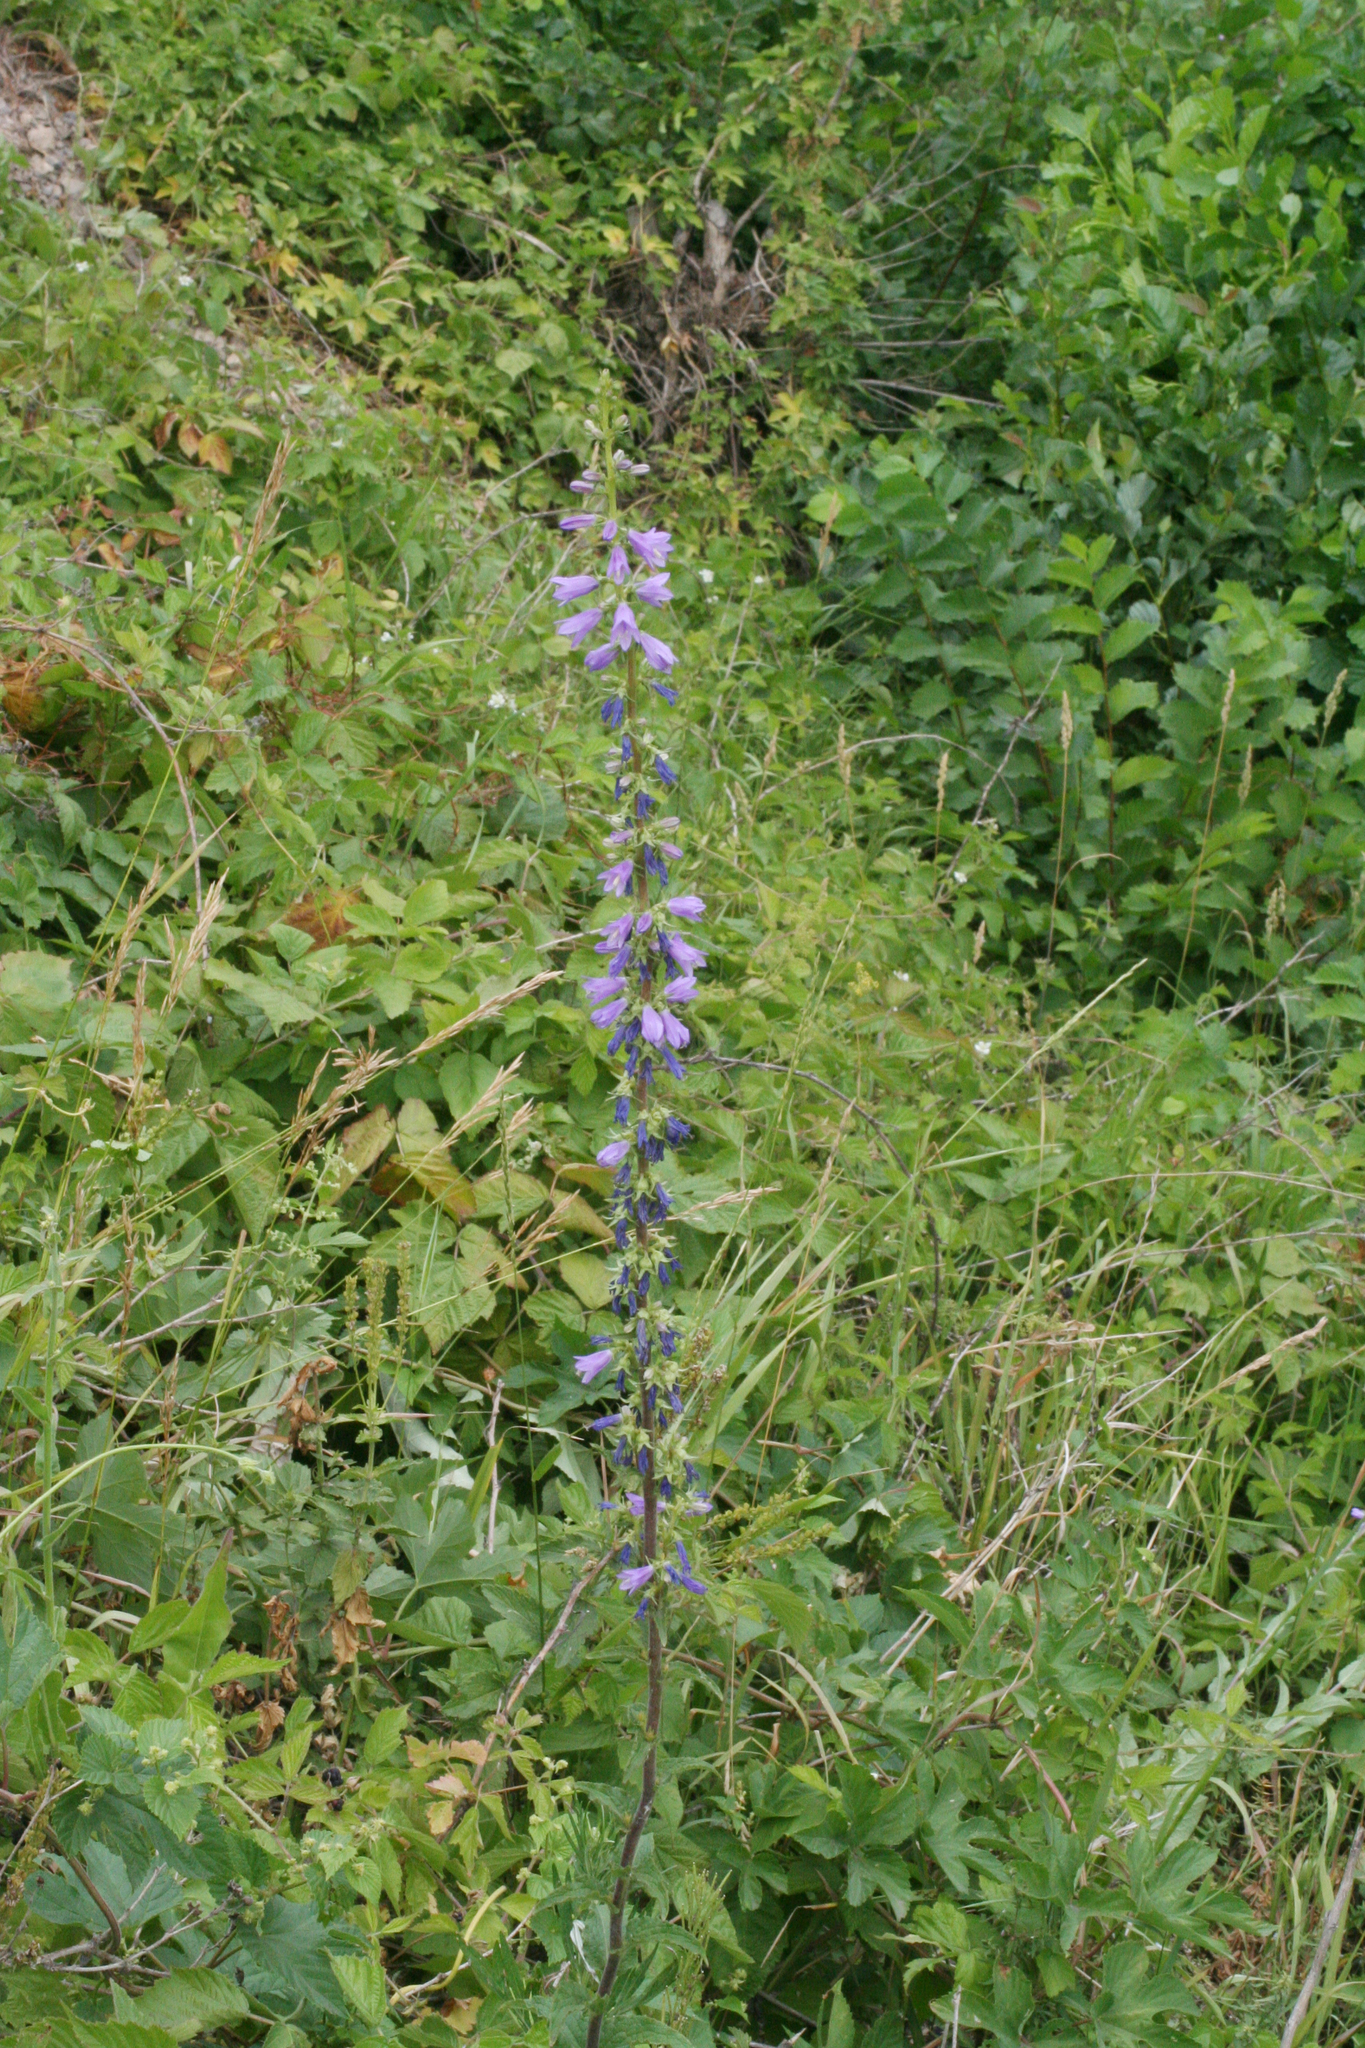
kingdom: Plantae
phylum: Tracheophyta
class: Magnoliopsida
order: Asterales
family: Campanulaceae
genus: Campanula
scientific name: Campanula bononiensis
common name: Pale bellflower
